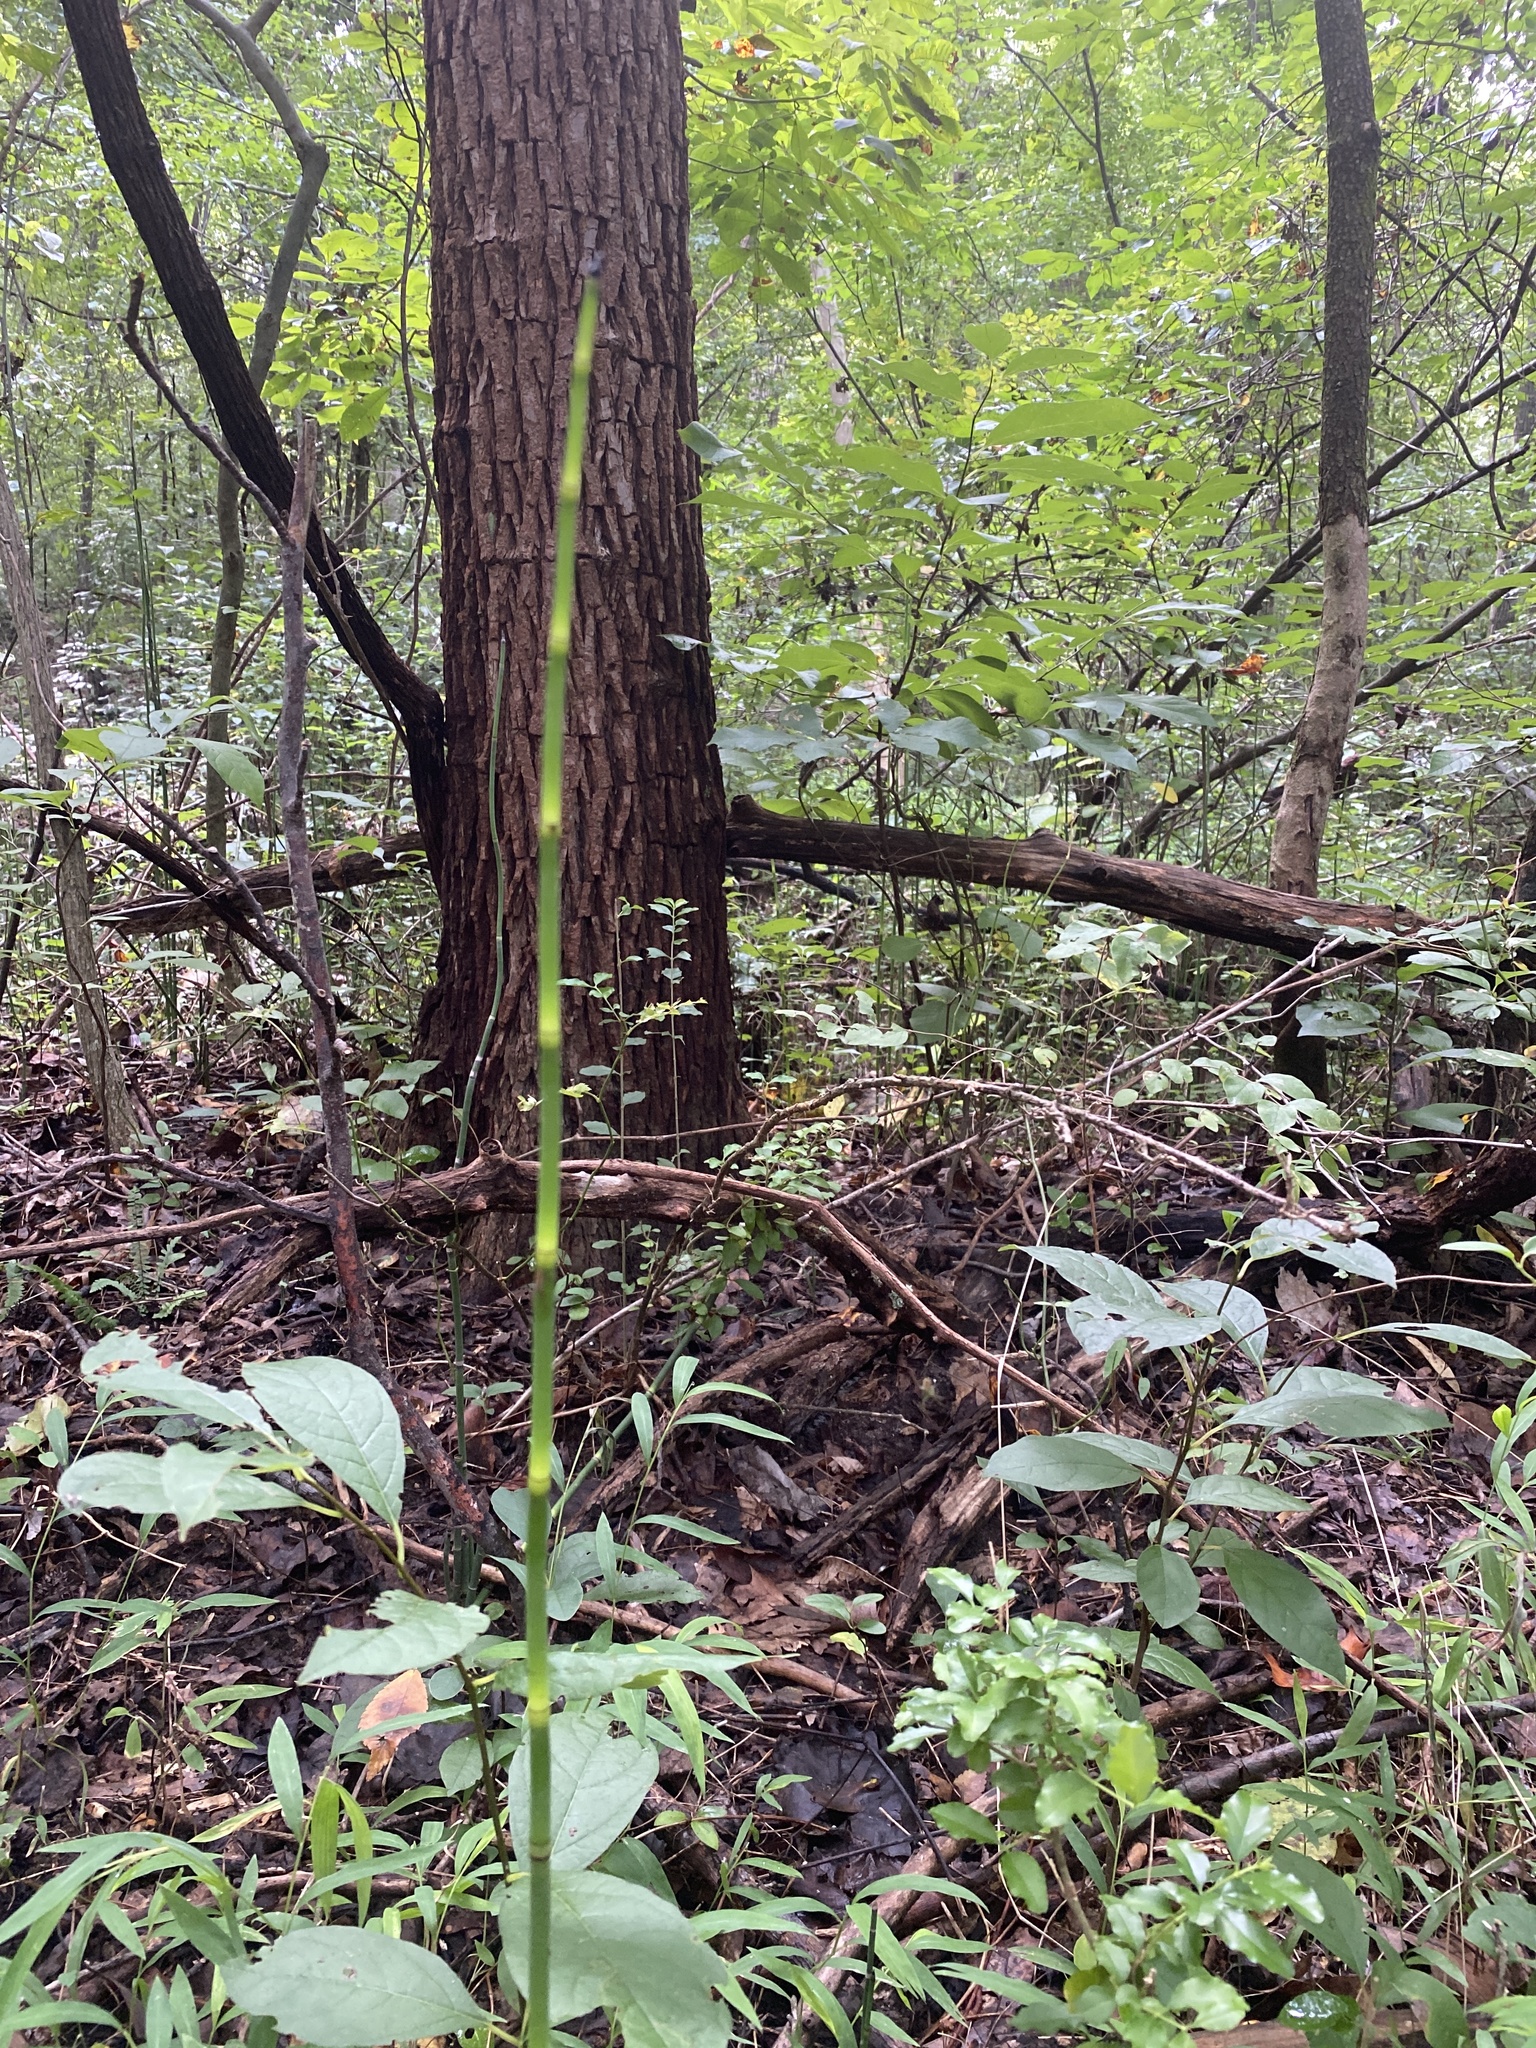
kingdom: Plantae
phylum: Tracheophyta
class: Polypodiopsida
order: Equisetales
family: Equisetaceae
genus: Equisetum
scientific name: Equisetum praealtum
